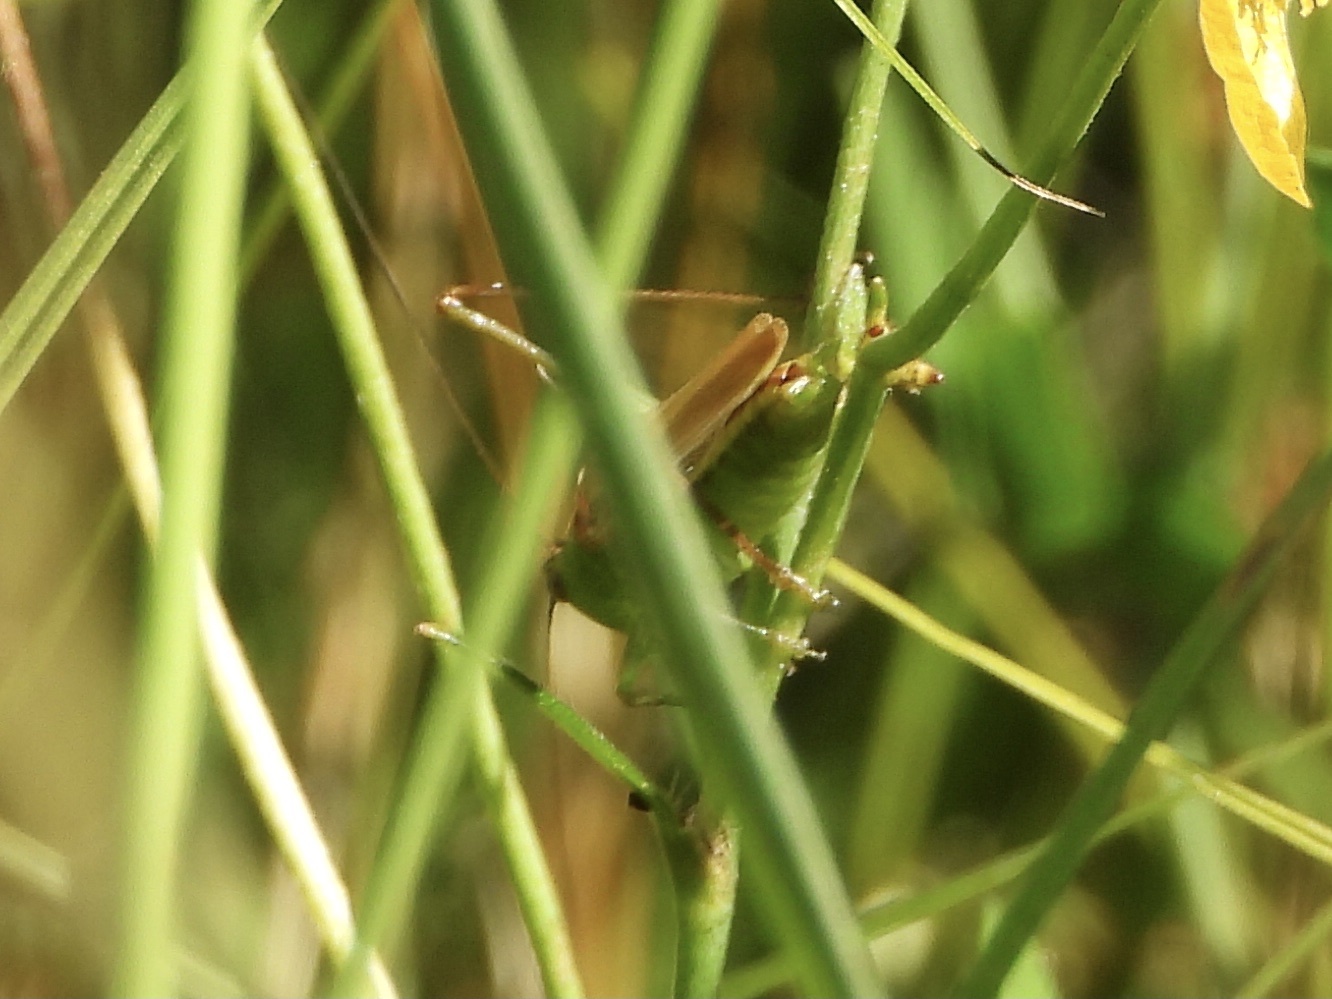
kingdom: Animalia
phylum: Arthropoda
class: Insecta
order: Orthoptera
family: Tettigoniidae
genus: Conocephalus
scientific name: Conocephalus fasciatus
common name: Slender meadow katydid
